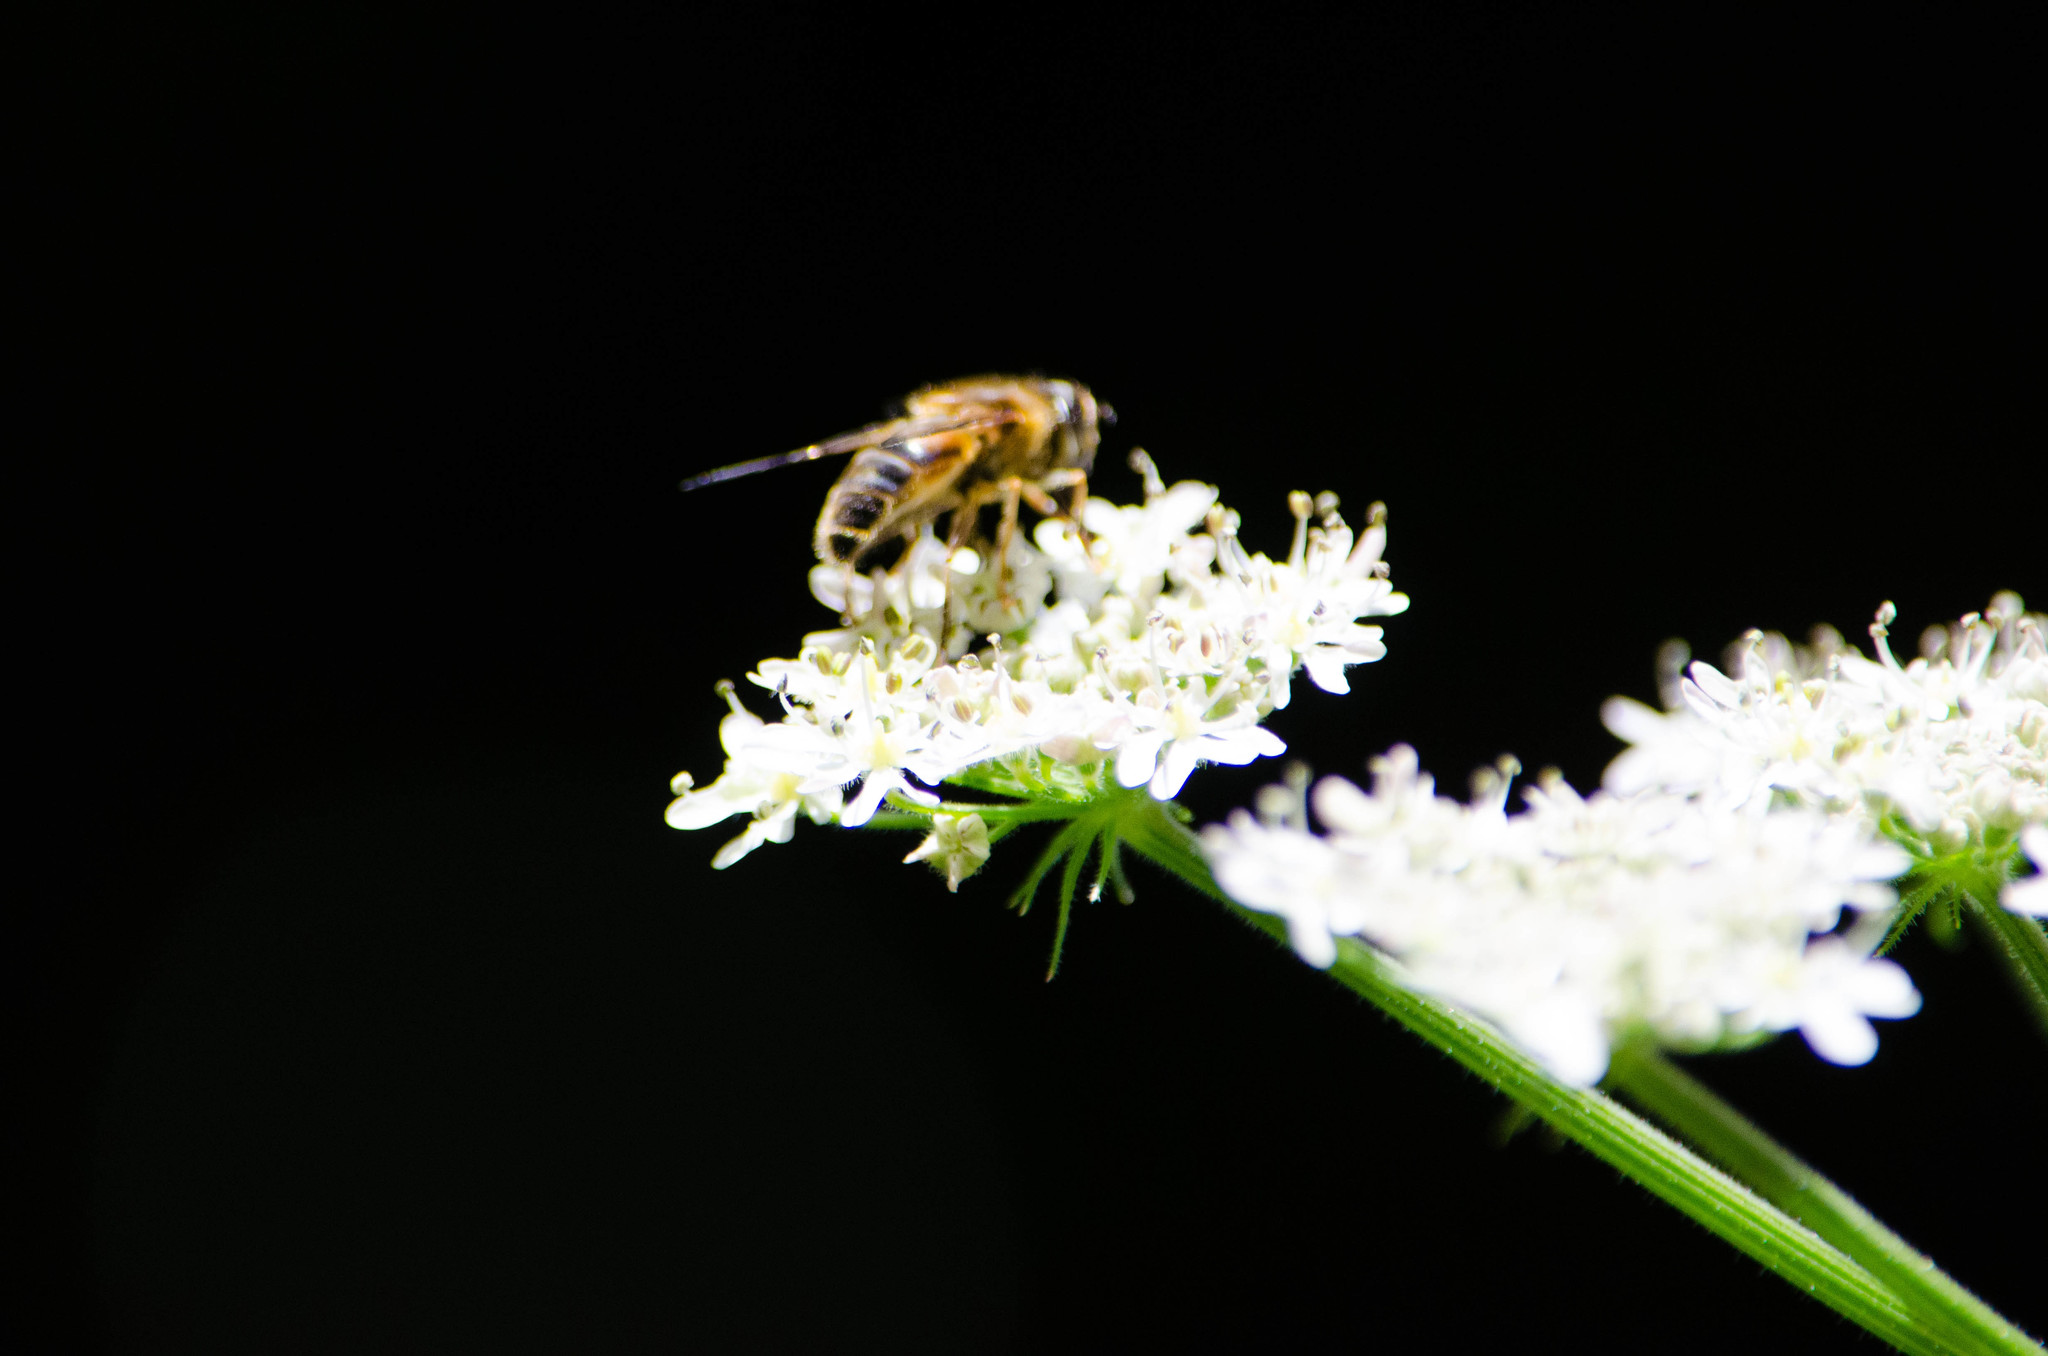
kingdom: Animalia
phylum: Arthropoda
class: Insecta
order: Diptera
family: Syrphidae
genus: Eristalis
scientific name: Eristalis
